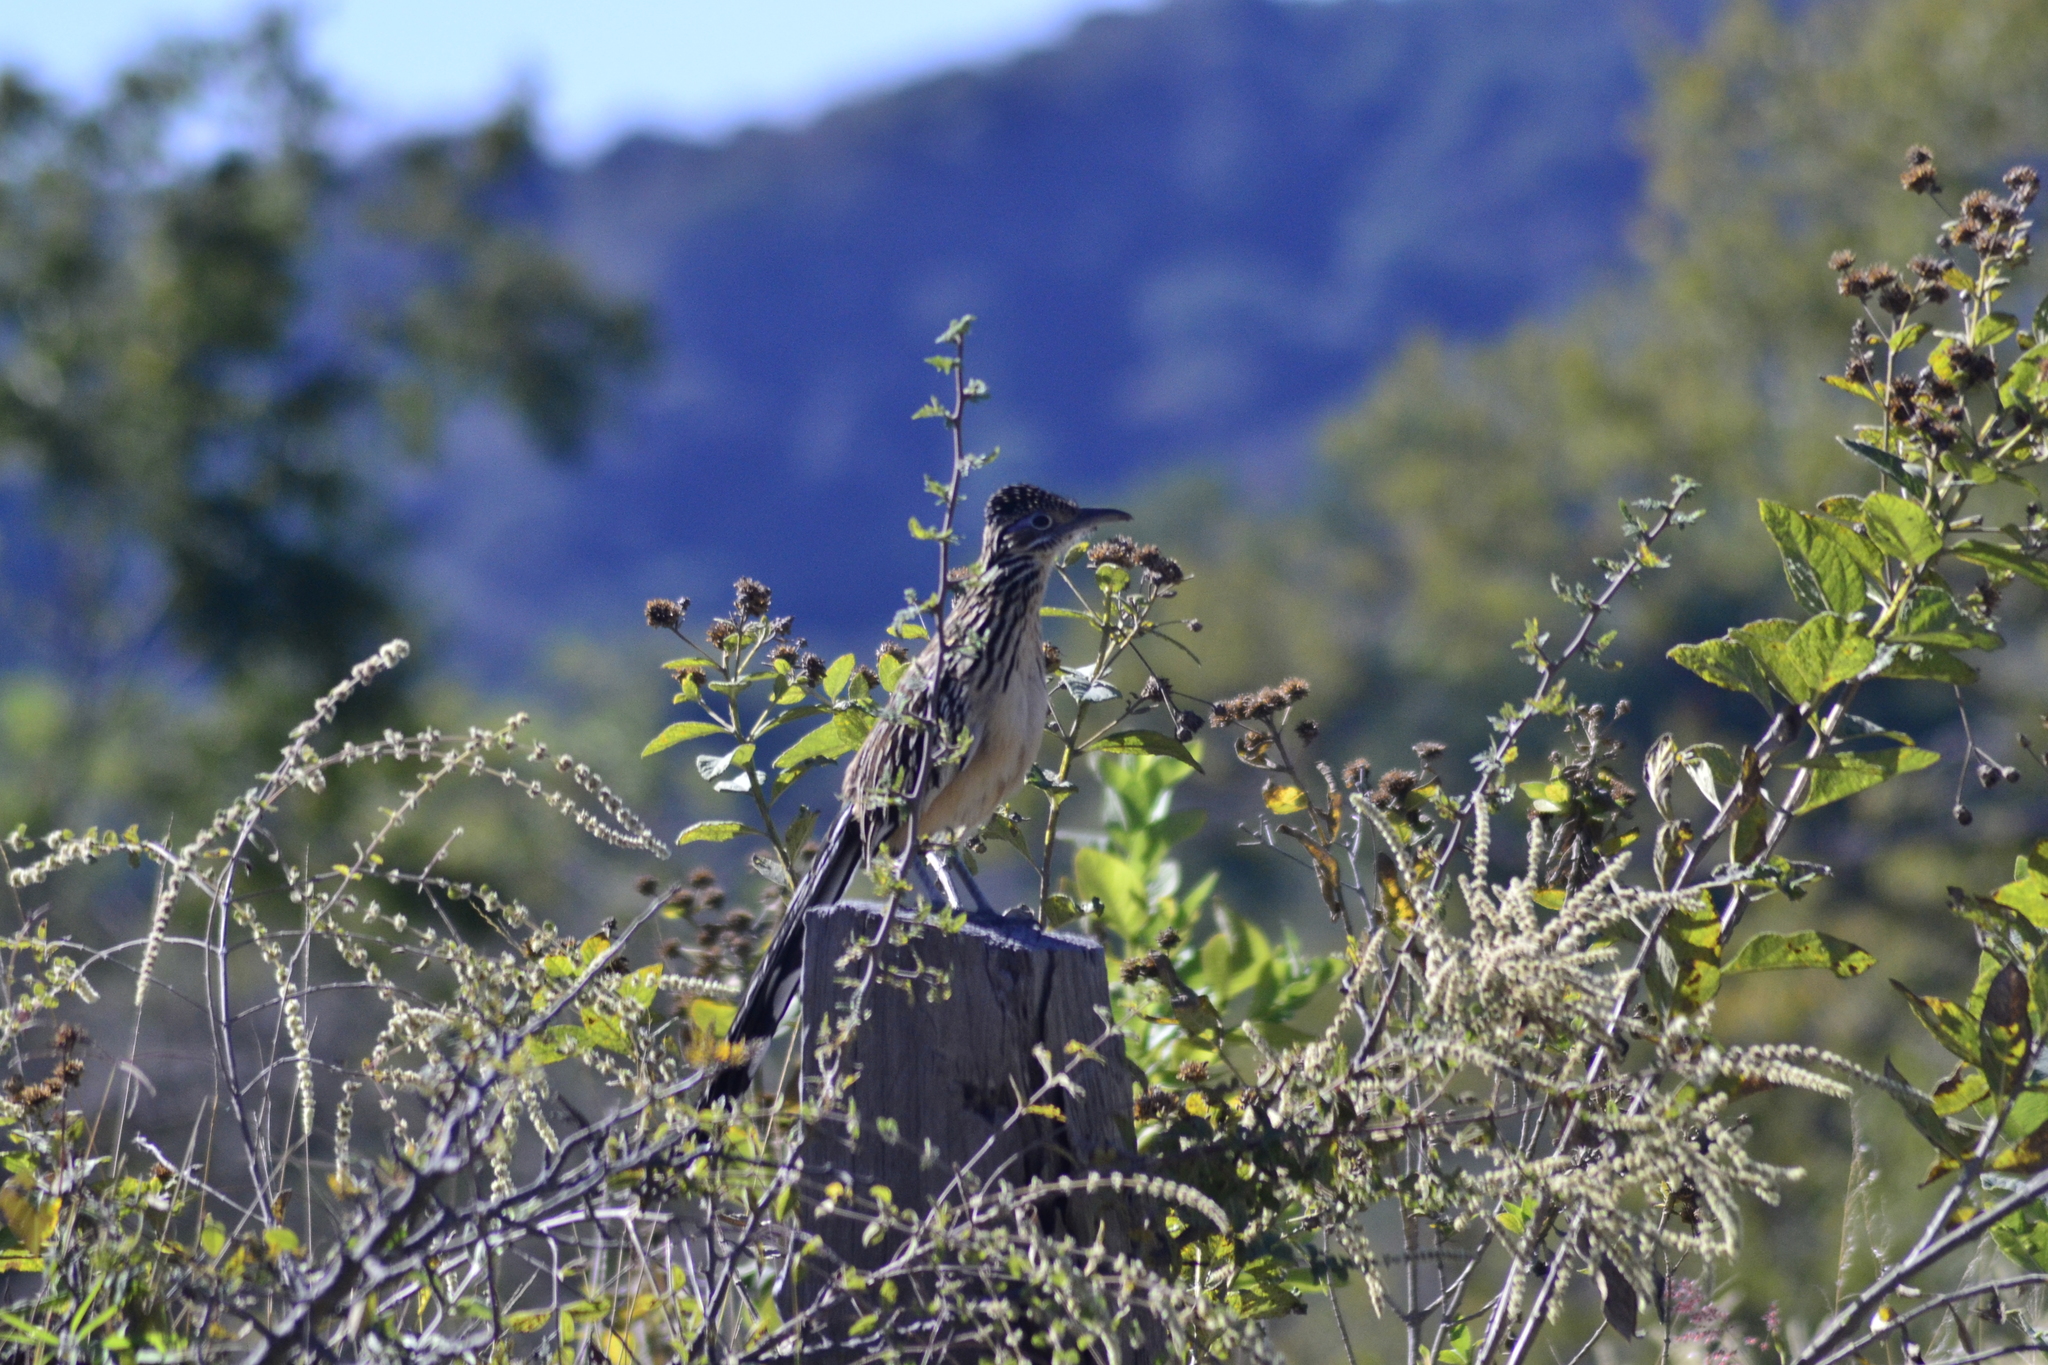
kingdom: Animalia
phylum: Chordata
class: Aves
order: Cuculiformes
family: Cuculidae
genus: Geococcyx
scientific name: Geococcyx velox
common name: Lesser roadrunner
